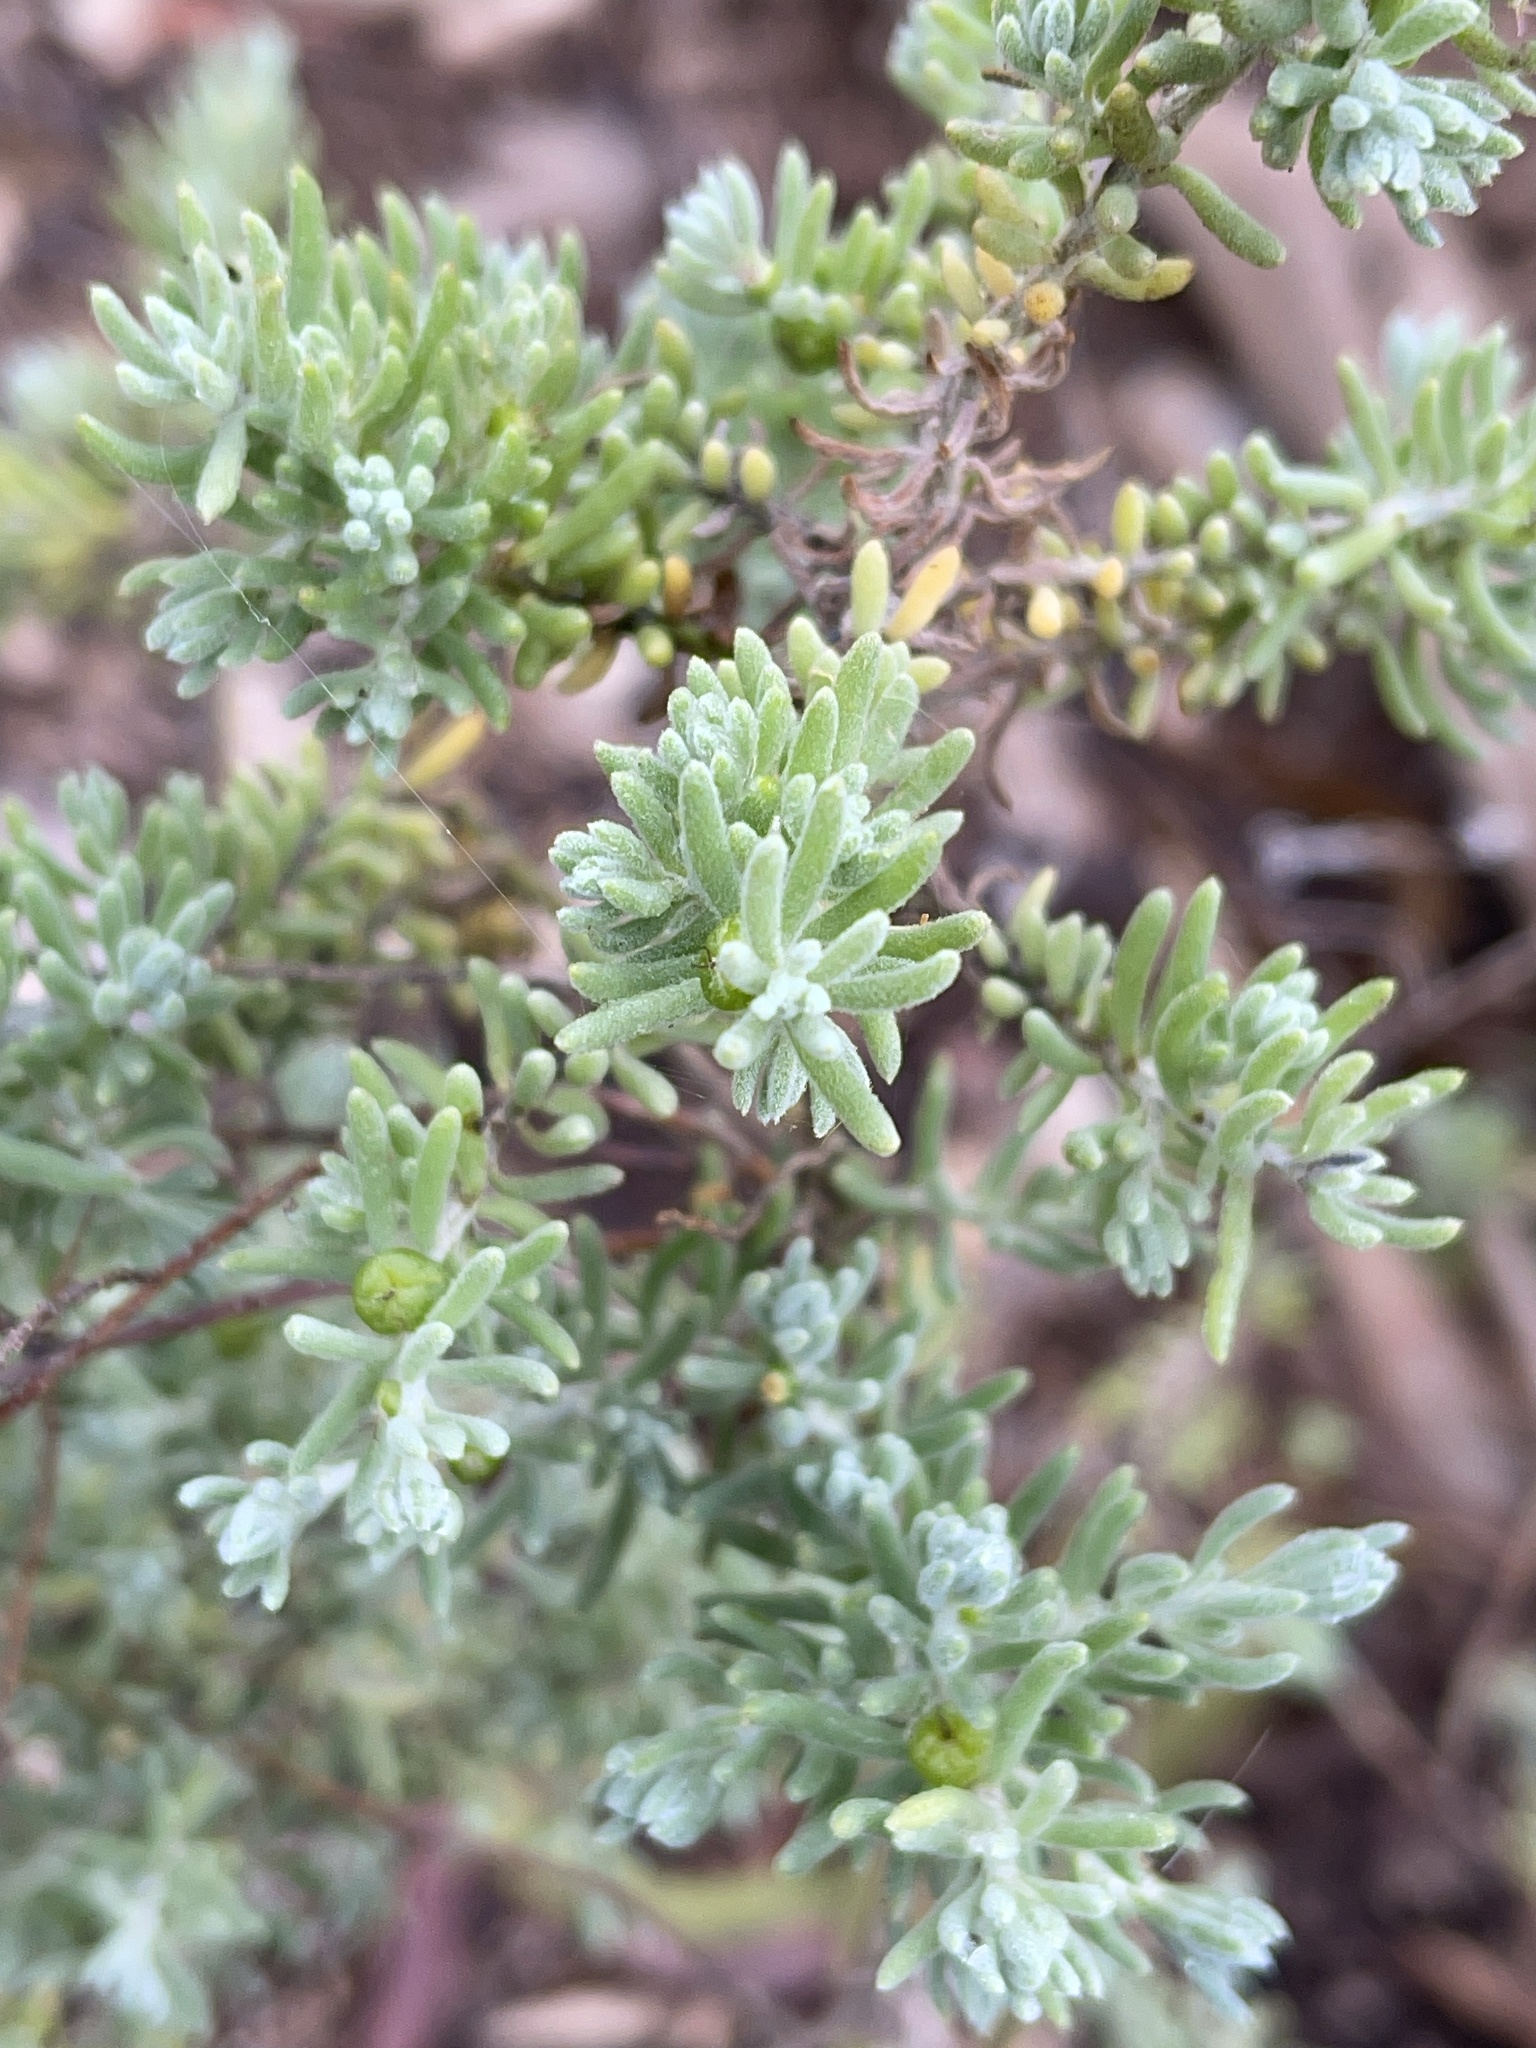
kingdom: Plantae
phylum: Tracheophyta
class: Magnoliopsida
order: Caryophyllales
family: Amaranthaceae
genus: Enchylaena
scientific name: Enchylaena tomentosa
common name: Ruby saltbush
